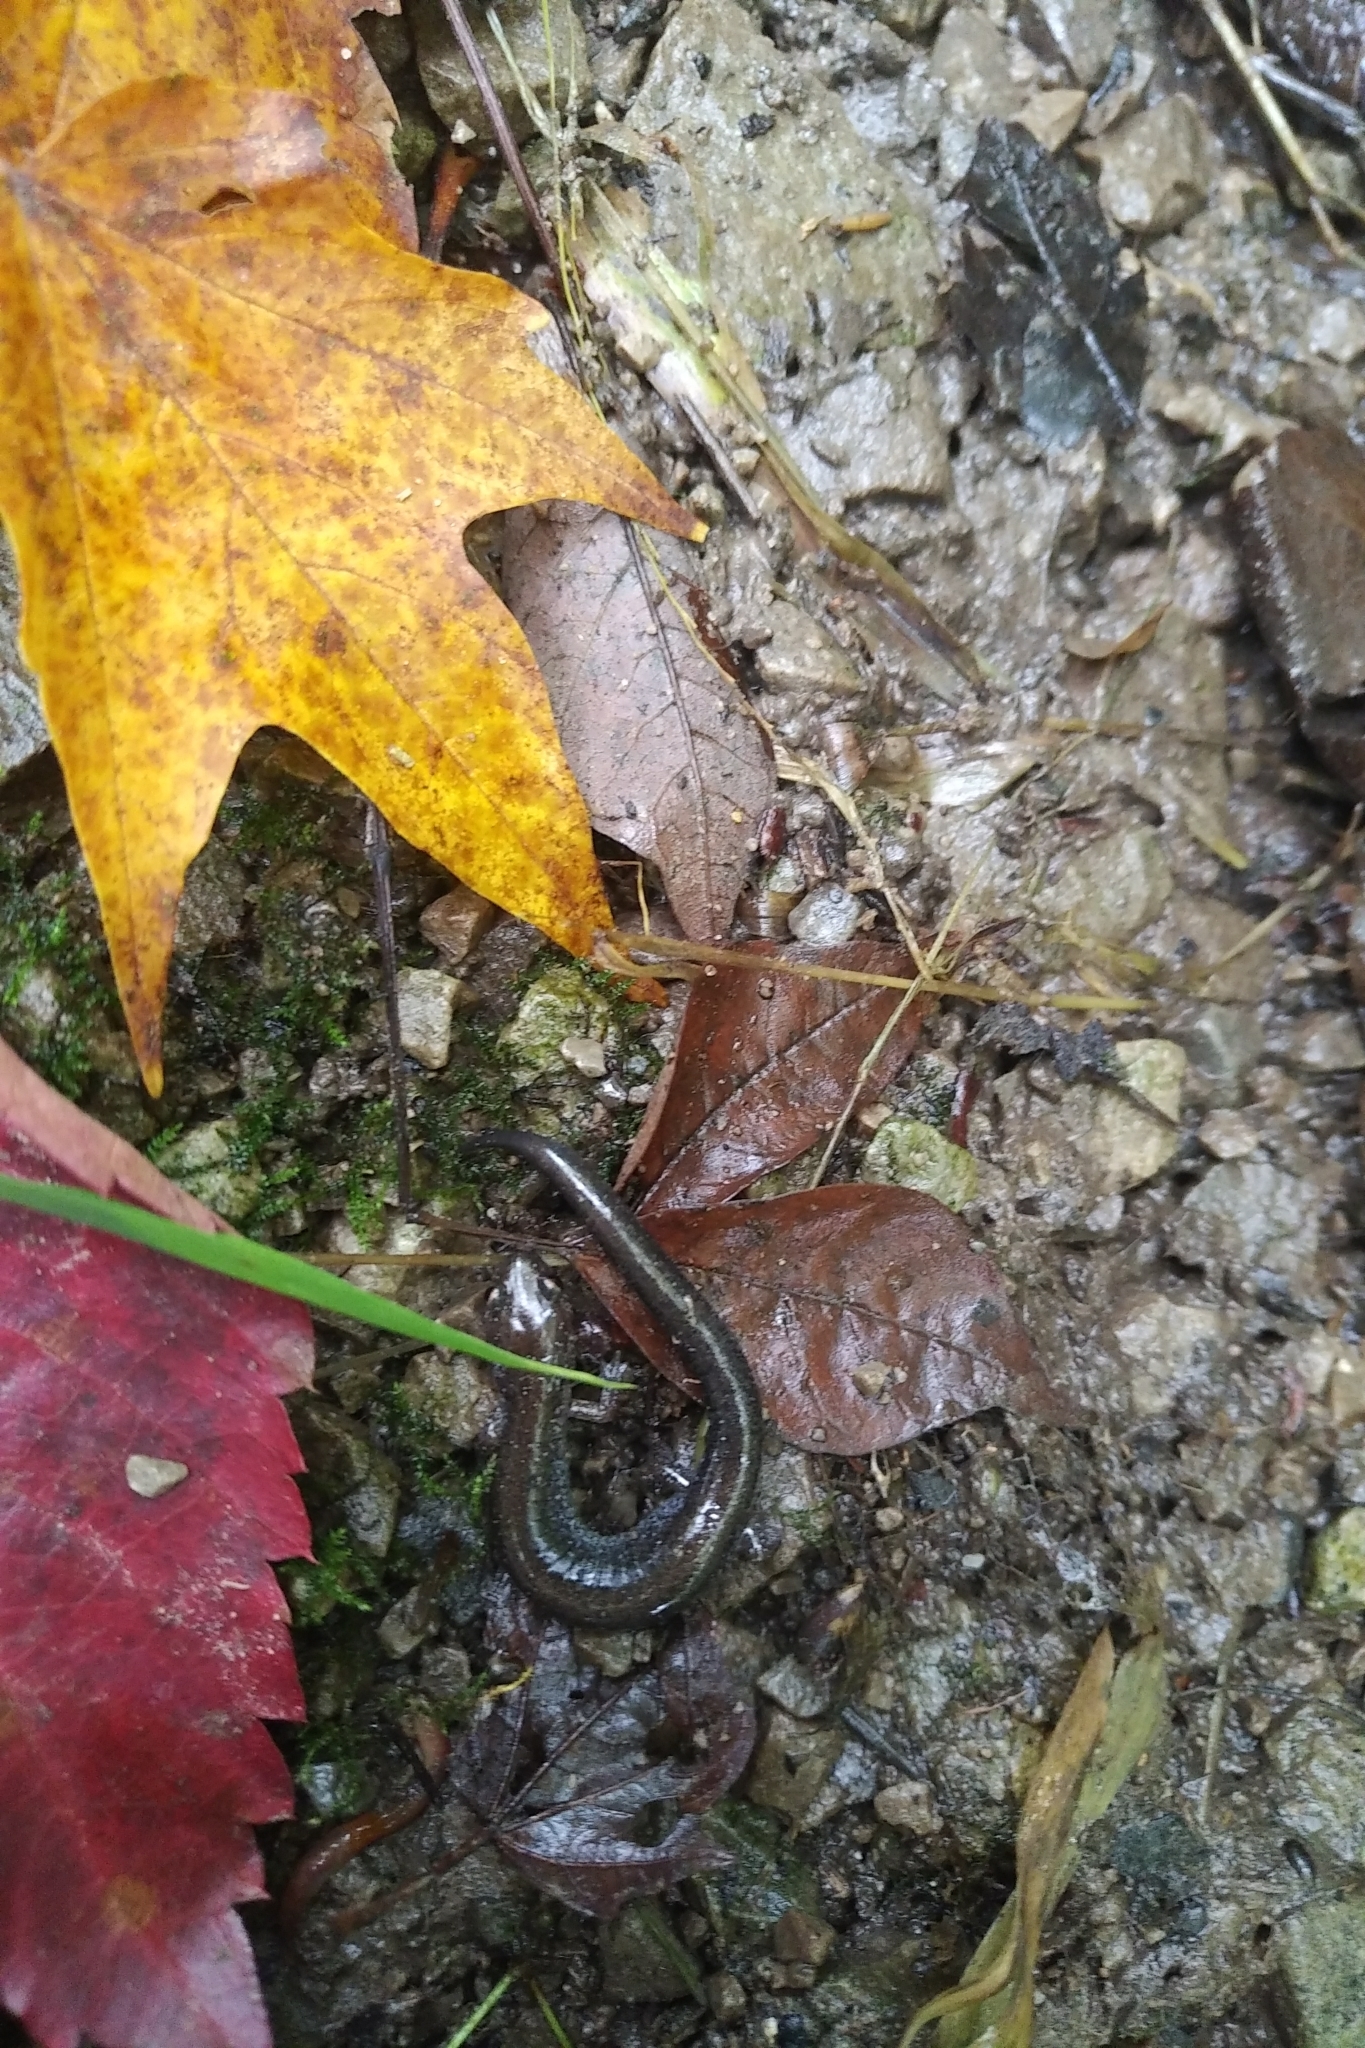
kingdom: Animalia
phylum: Chordata
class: Amphibia
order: Caudata
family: Plethodontidae
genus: Plethodon
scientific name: Plethodon cinereus
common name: Redback salamander
